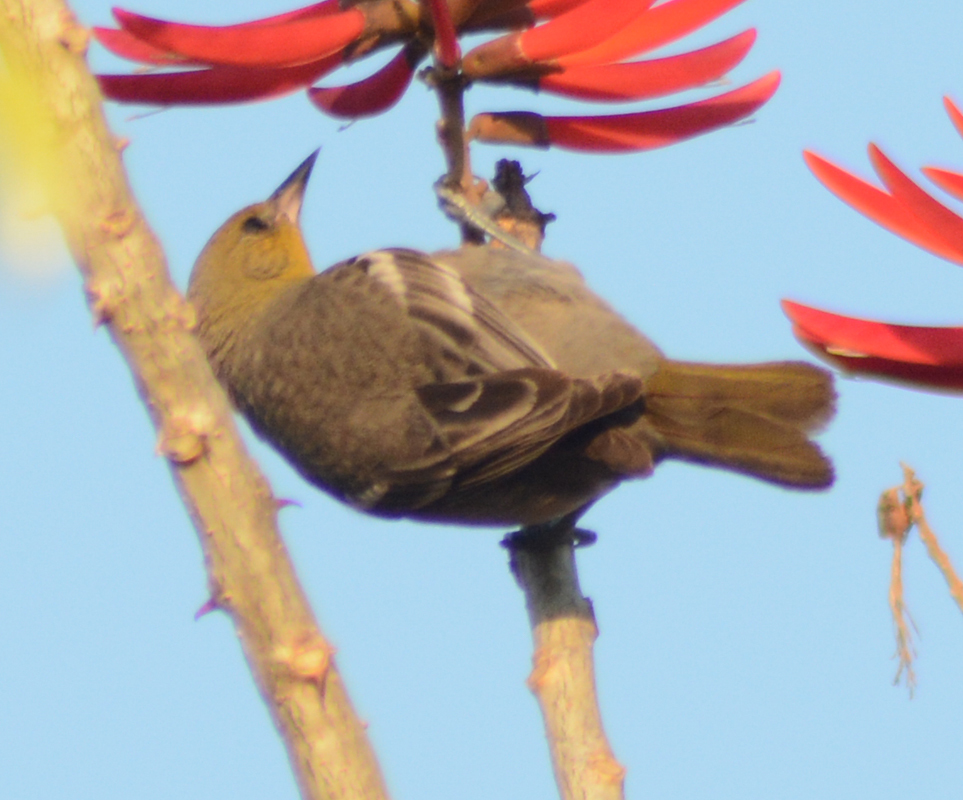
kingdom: Animalia
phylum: Chordata
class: Aves
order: Passeriformes
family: Icteridae
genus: Icterus
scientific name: Icterus abeillei
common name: Black-backed oriole
